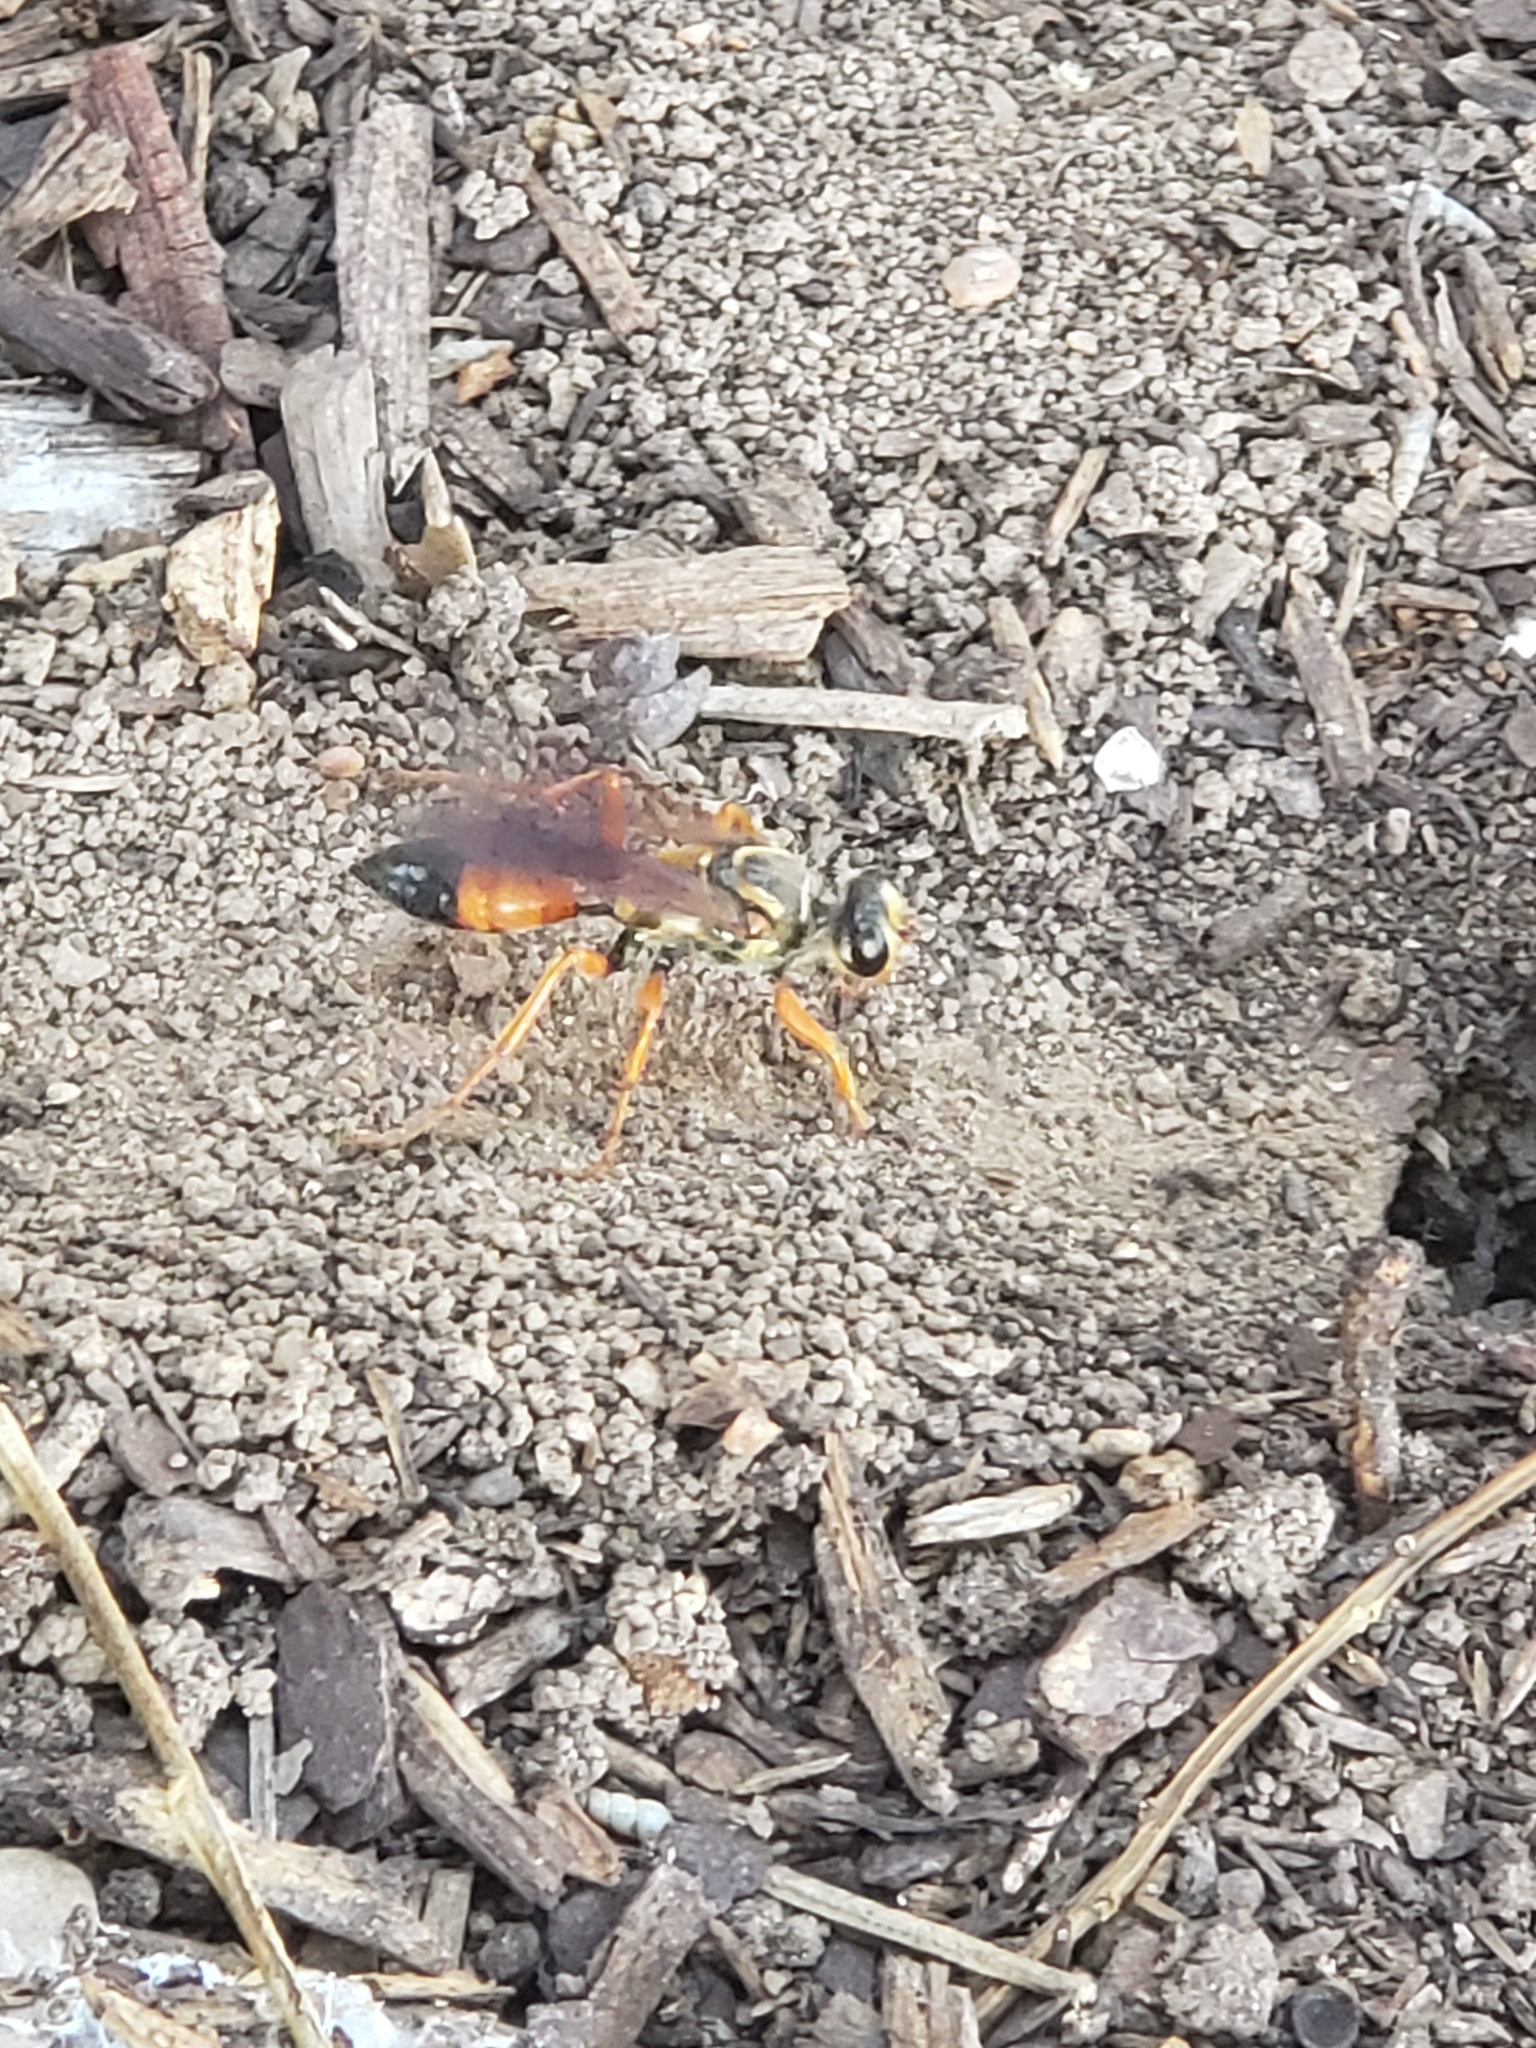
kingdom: Animalia
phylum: Arthropoda
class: Insecta
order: Hymenoptera
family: Sphecidae
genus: Sphex
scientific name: Sphex ichneumoneus
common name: Great golden digger wasp
